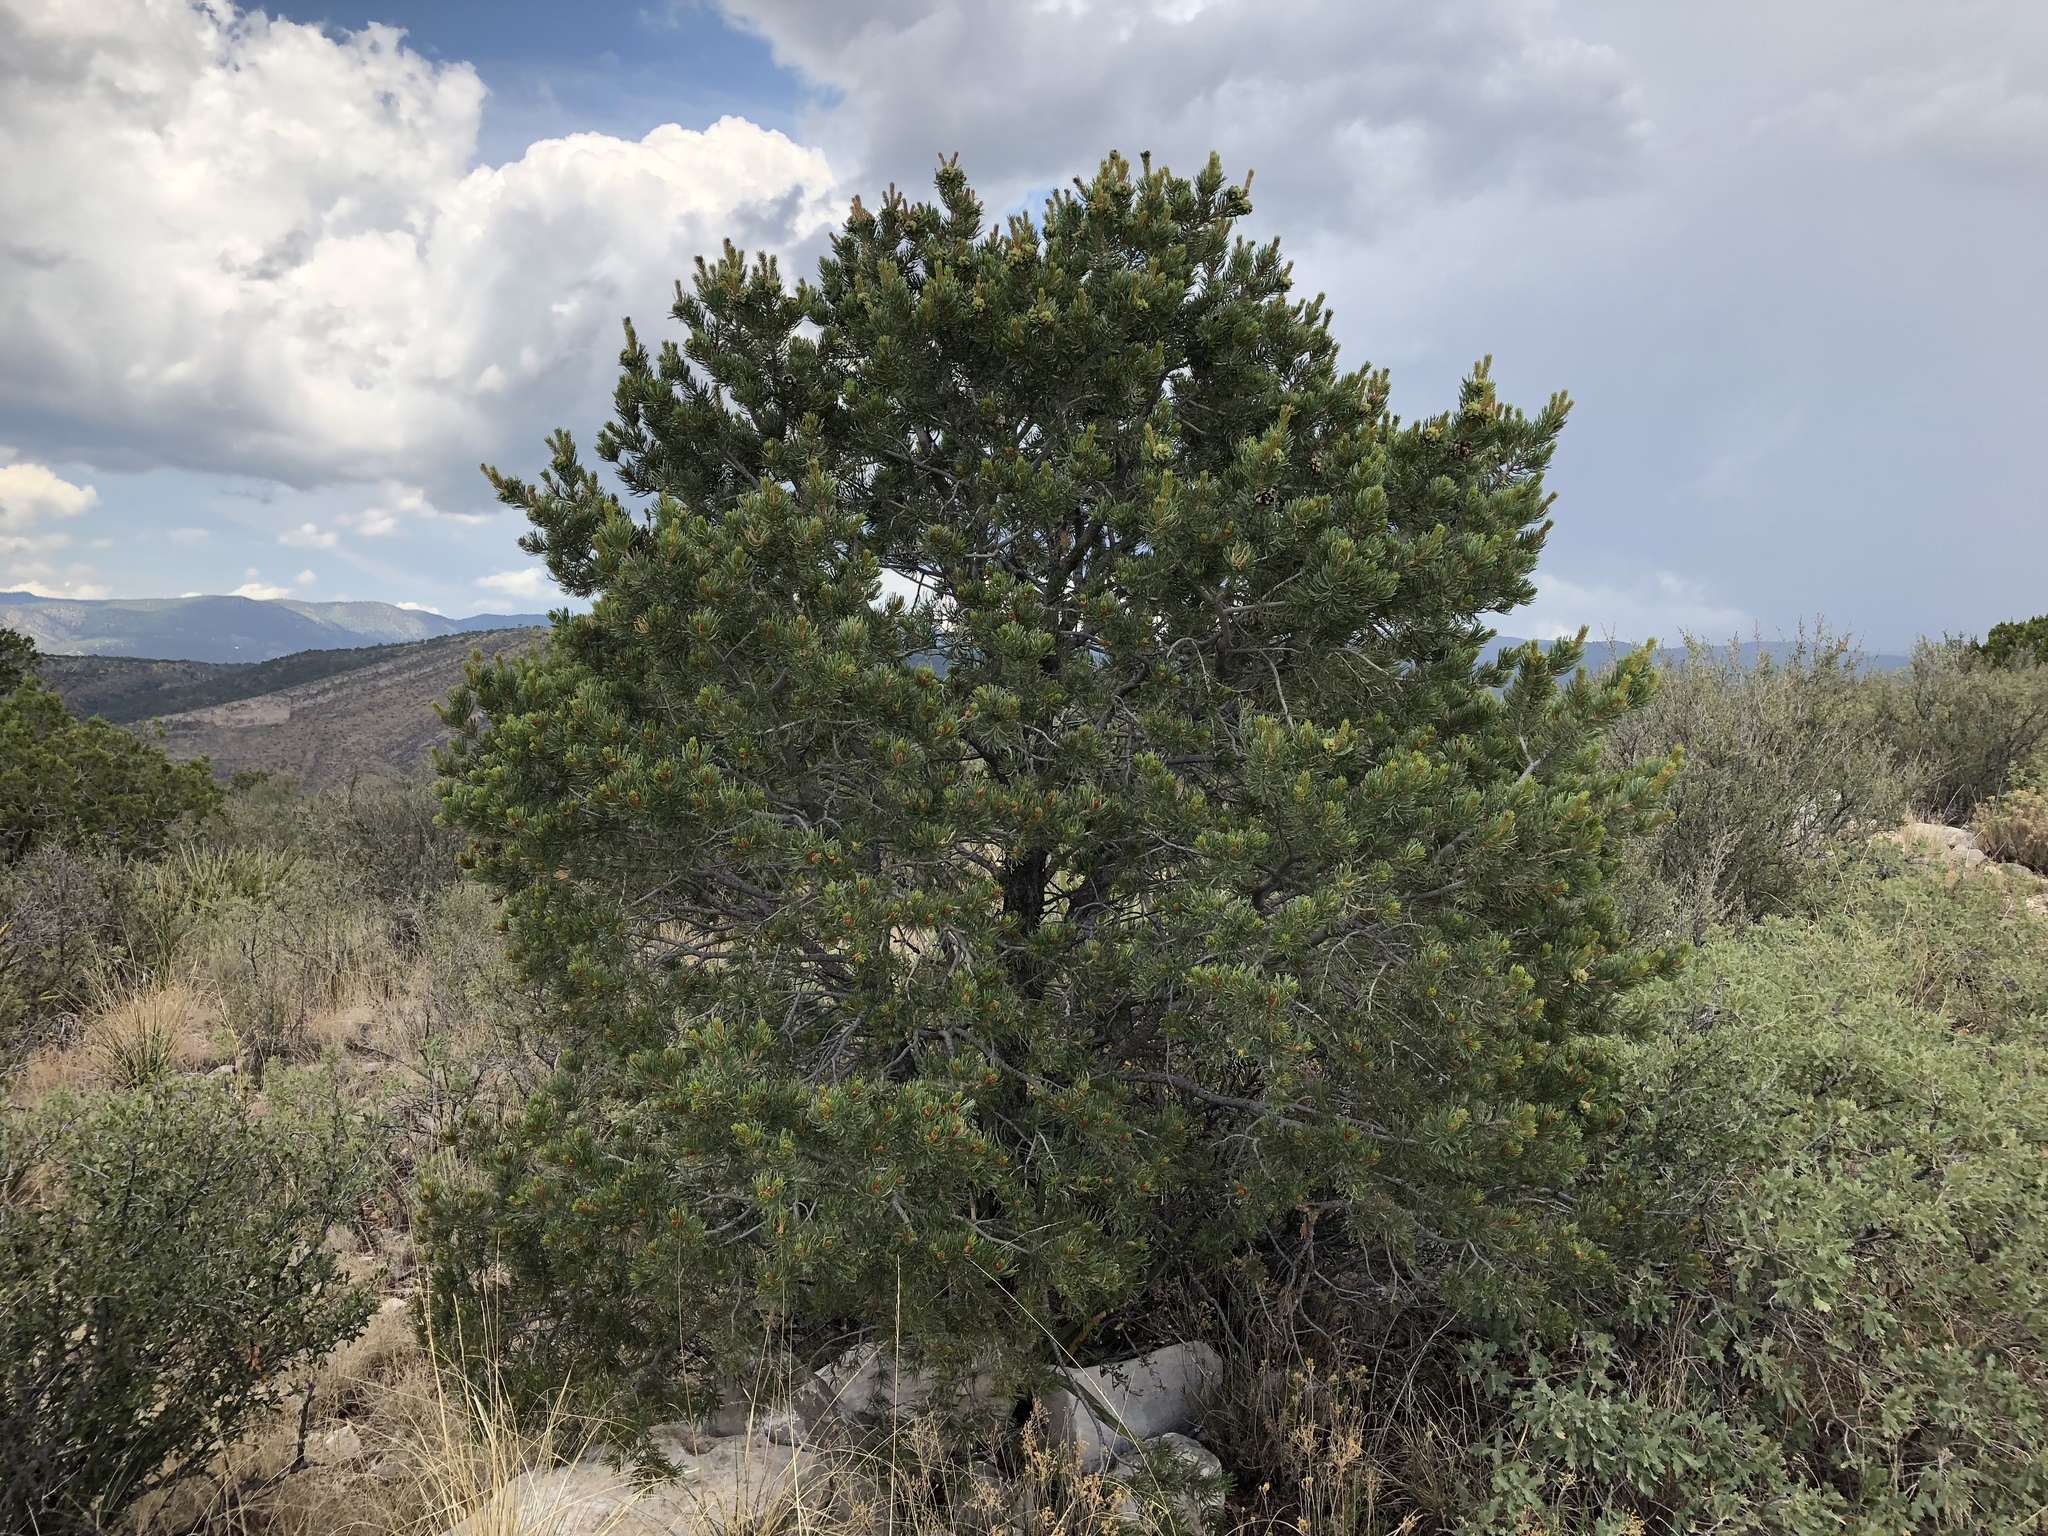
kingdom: Plantae
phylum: Tracheophyta
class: Pinopsida
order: Pinales
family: Pinaceae
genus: Pinus
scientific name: Pinus edulis
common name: Colorado pinyon
